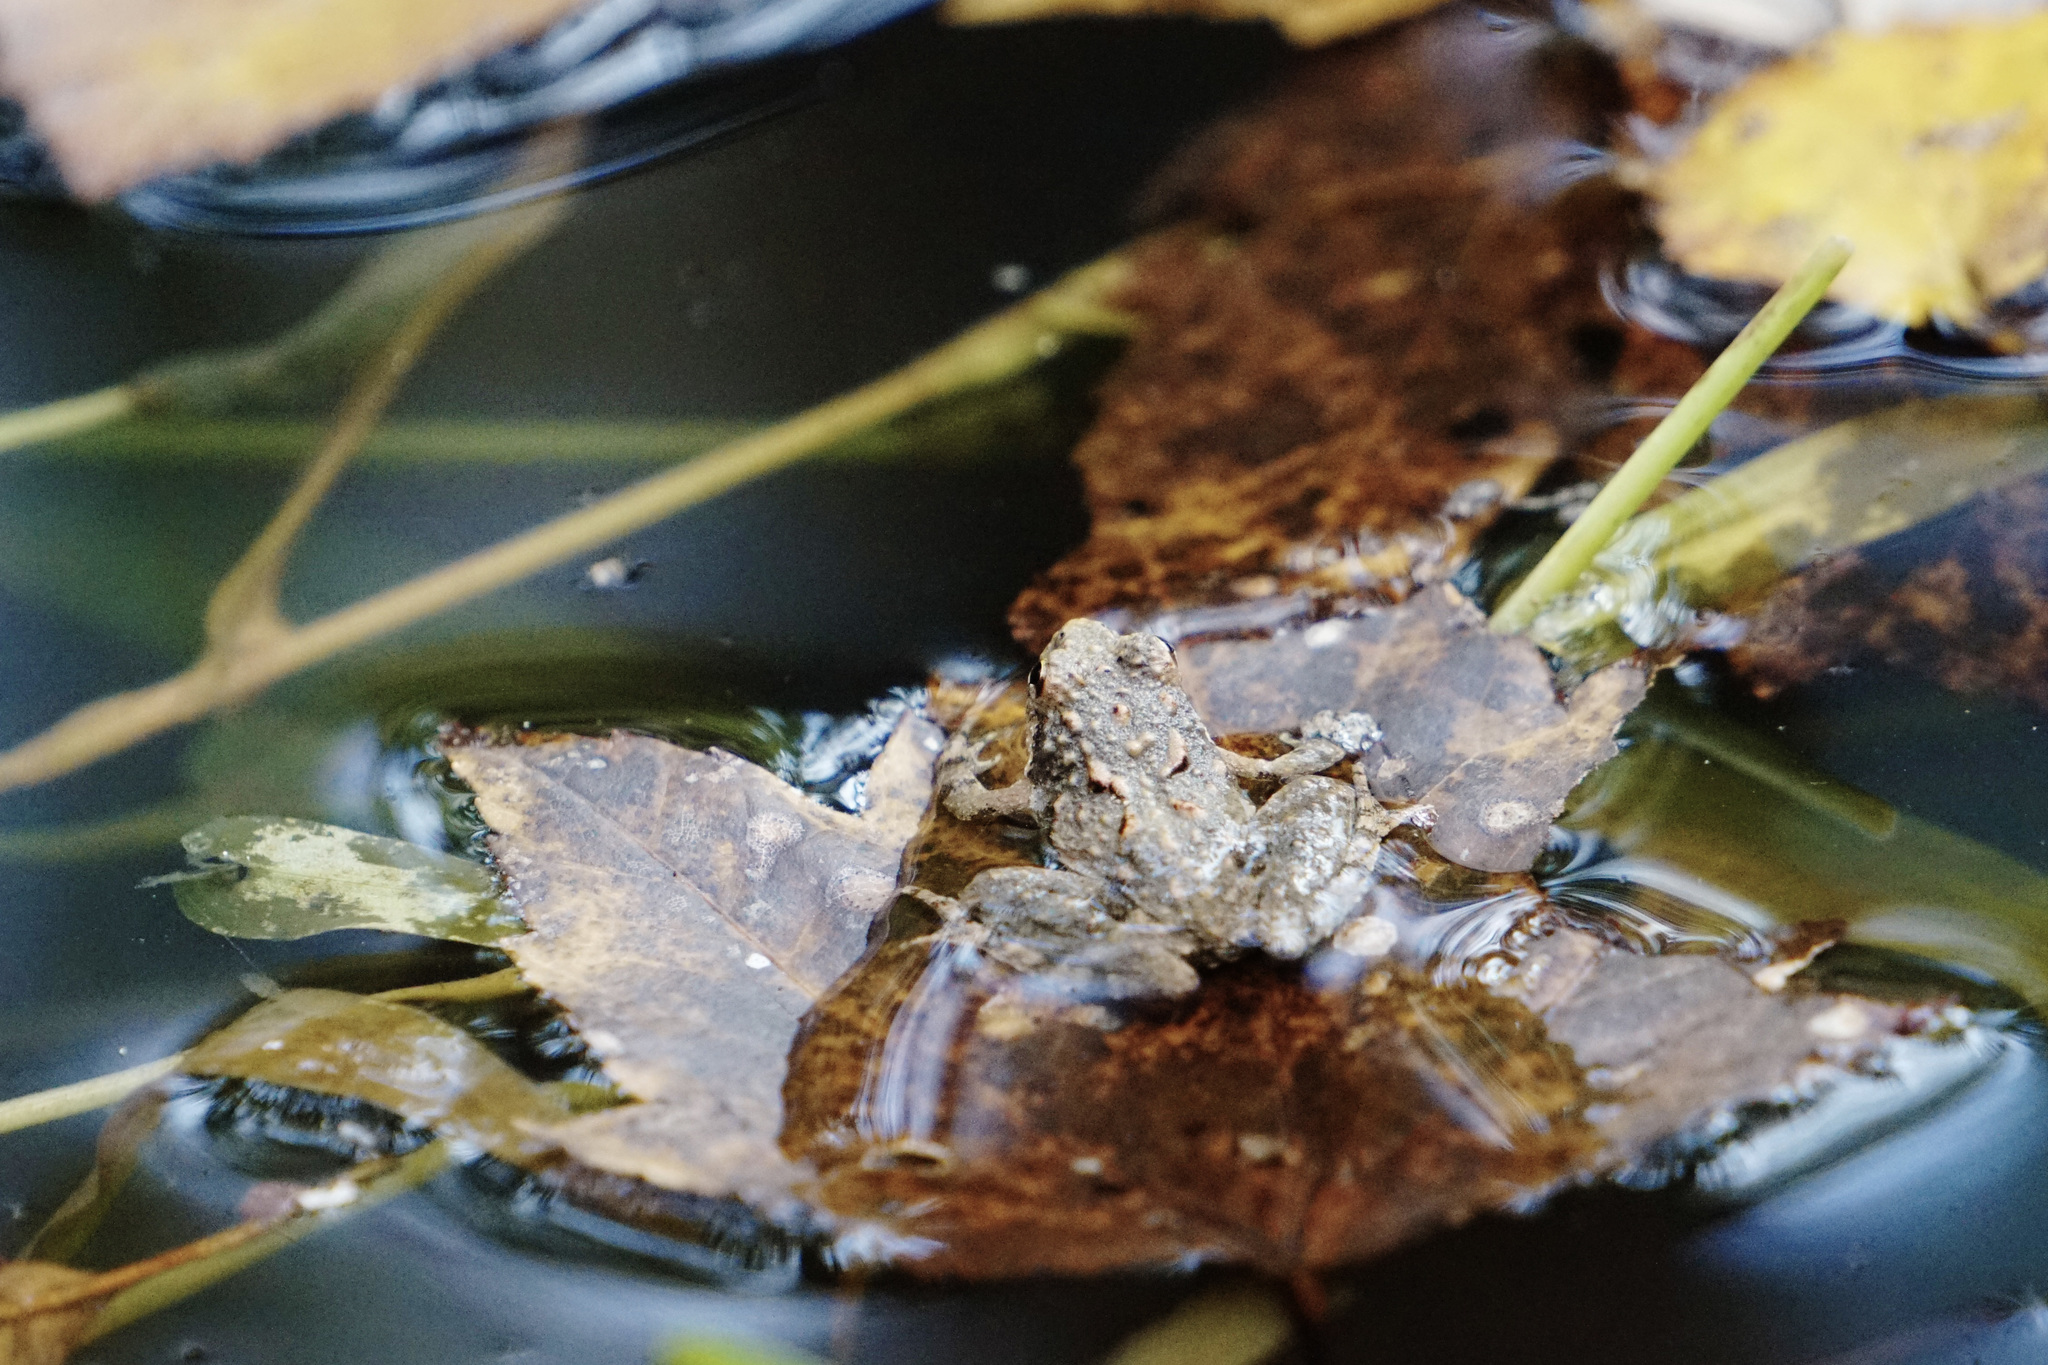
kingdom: Animalia
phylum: Chordata
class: Amphibia
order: Anura
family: Hylidae
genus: Acris
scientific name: Acris crepitans
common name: Northern cricket frog
